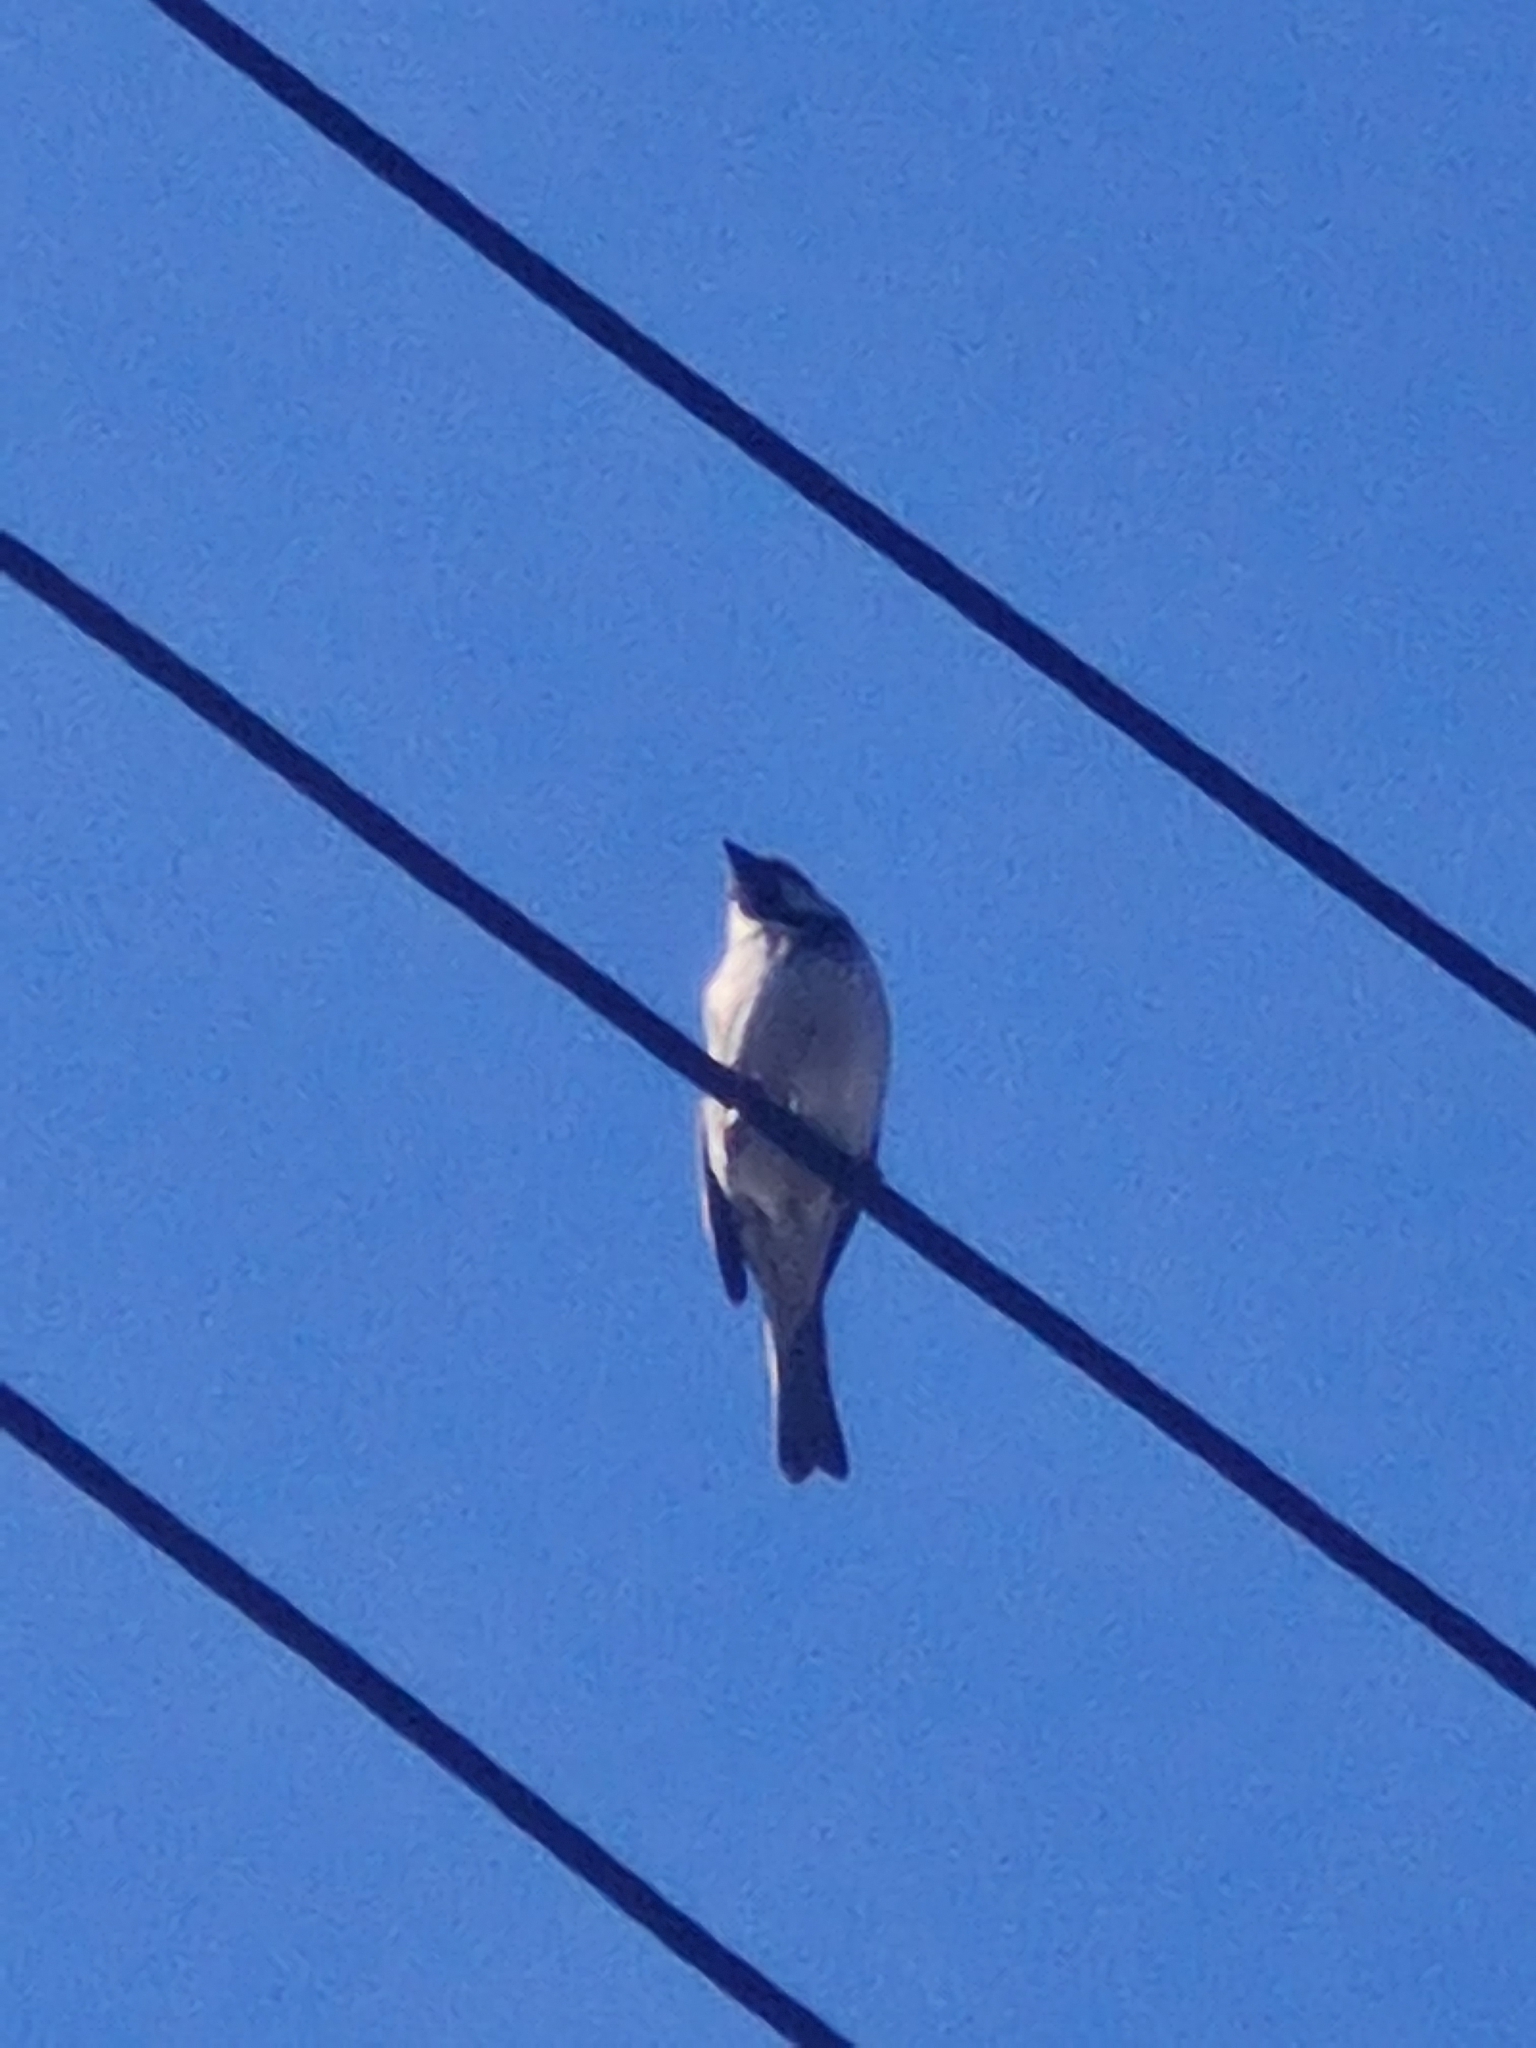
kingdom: Animalia
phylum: Chordata
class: Aves
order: Passeriformes
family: Passeridae
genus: Passer
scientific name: Passer domesticus
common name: House sparrow
